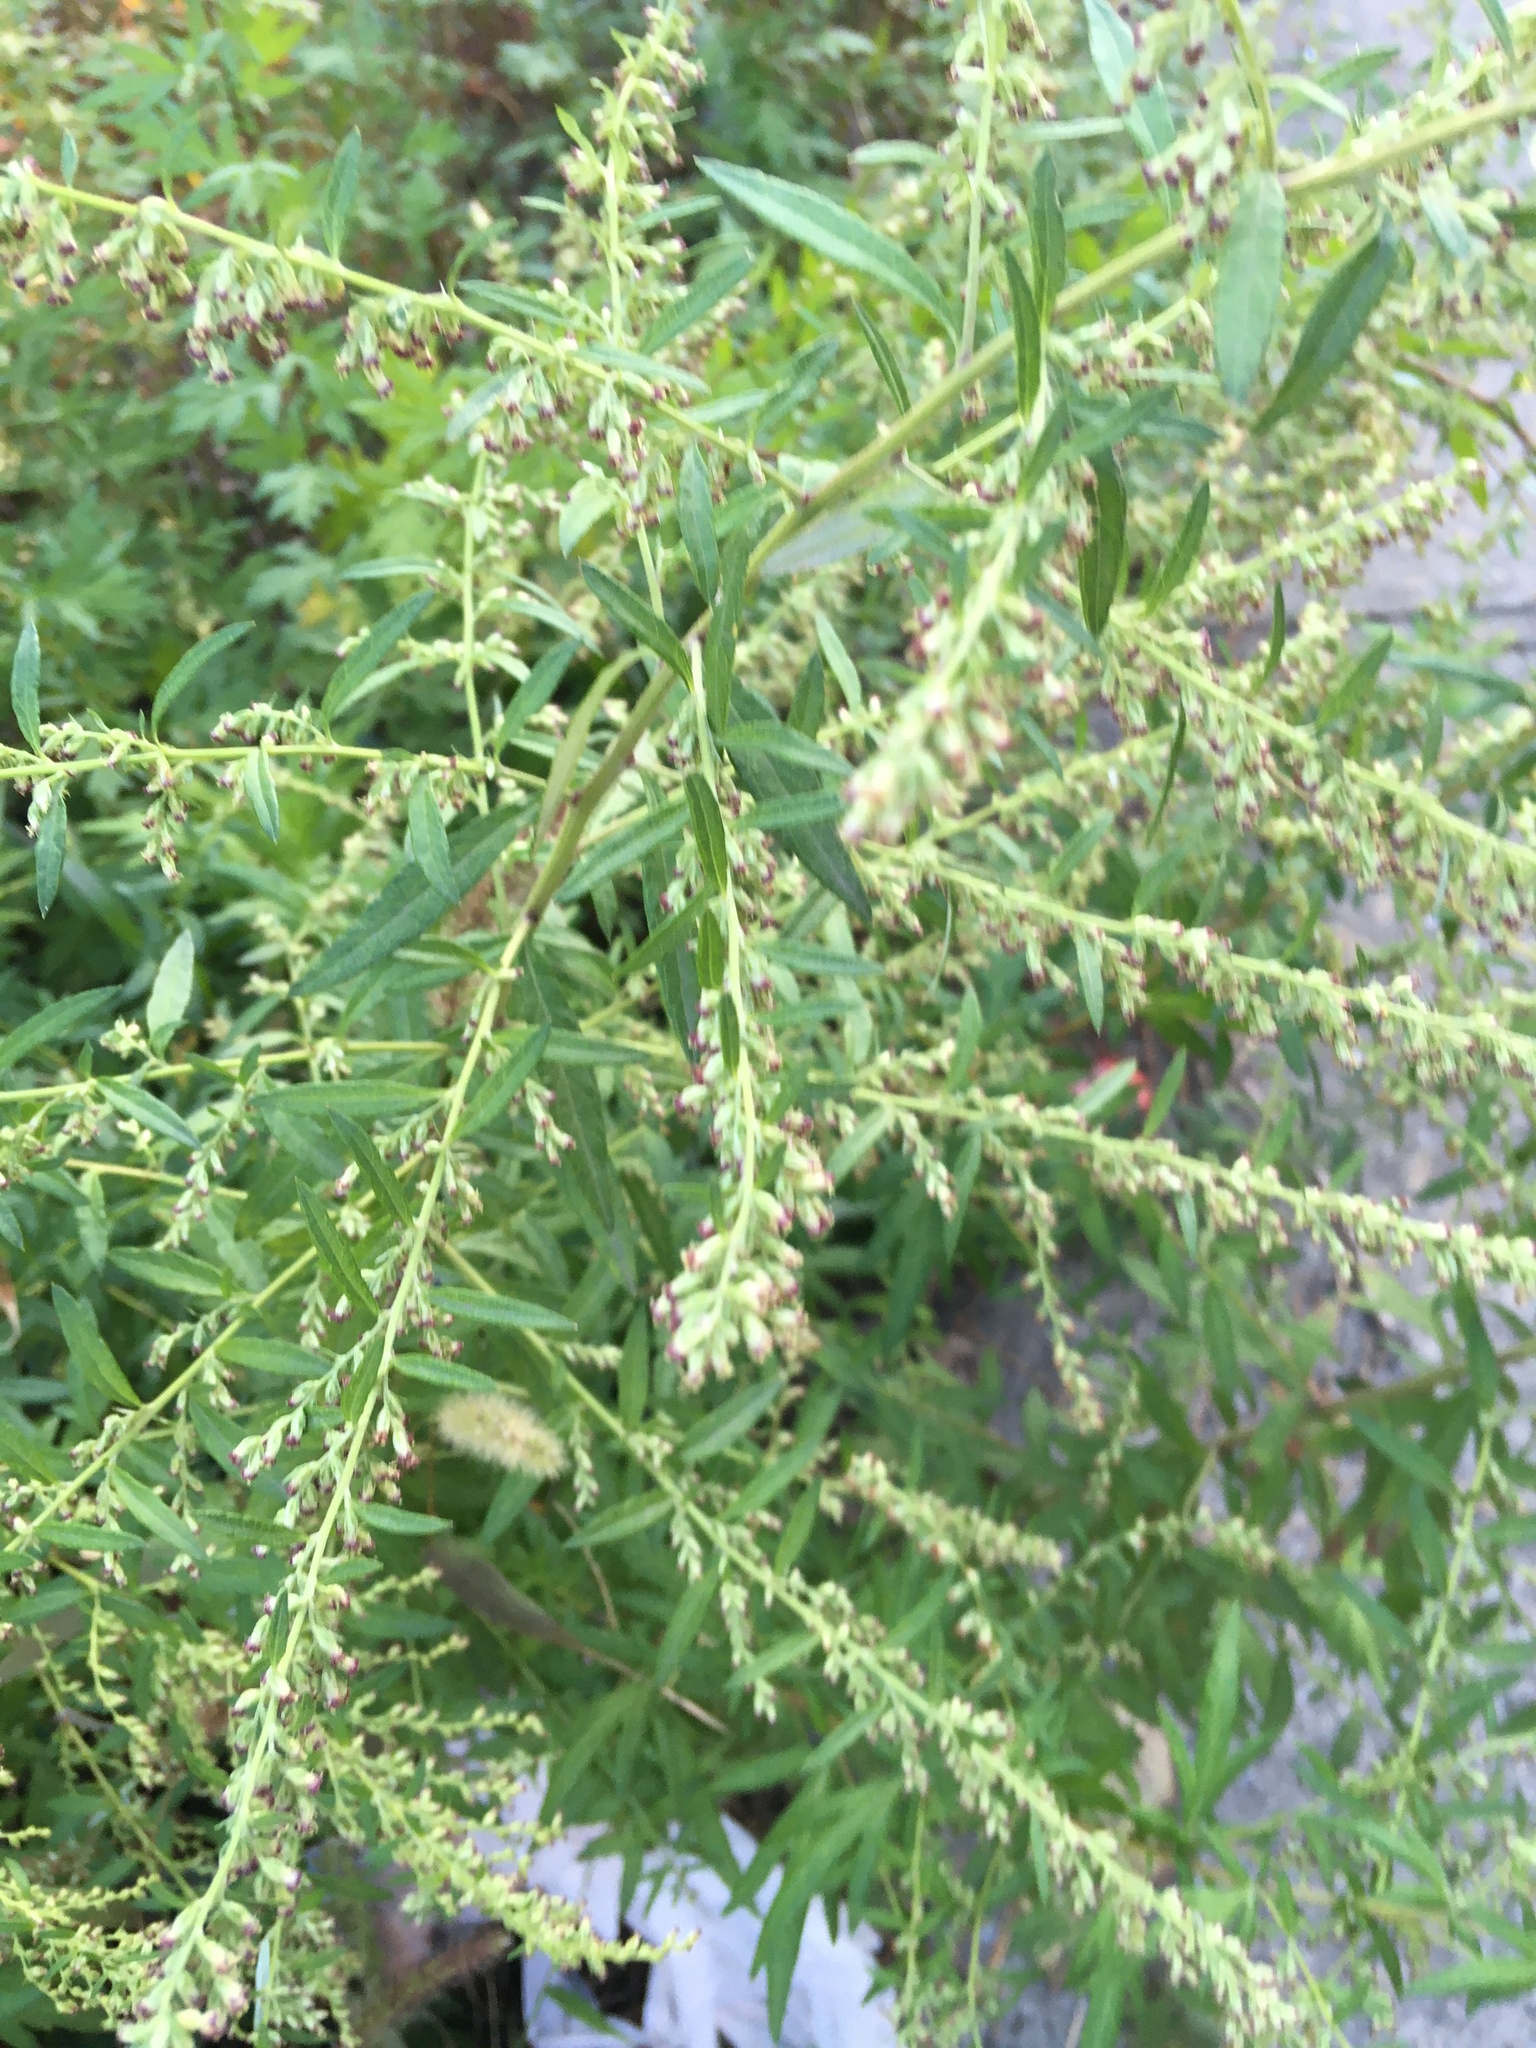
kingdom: Plantae
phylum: Tracheophyta
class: Magnoliopsida
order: Asterales
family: Asteraceae
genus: Artemisia
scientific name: Artemisia vulgaris
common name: Mugwort
